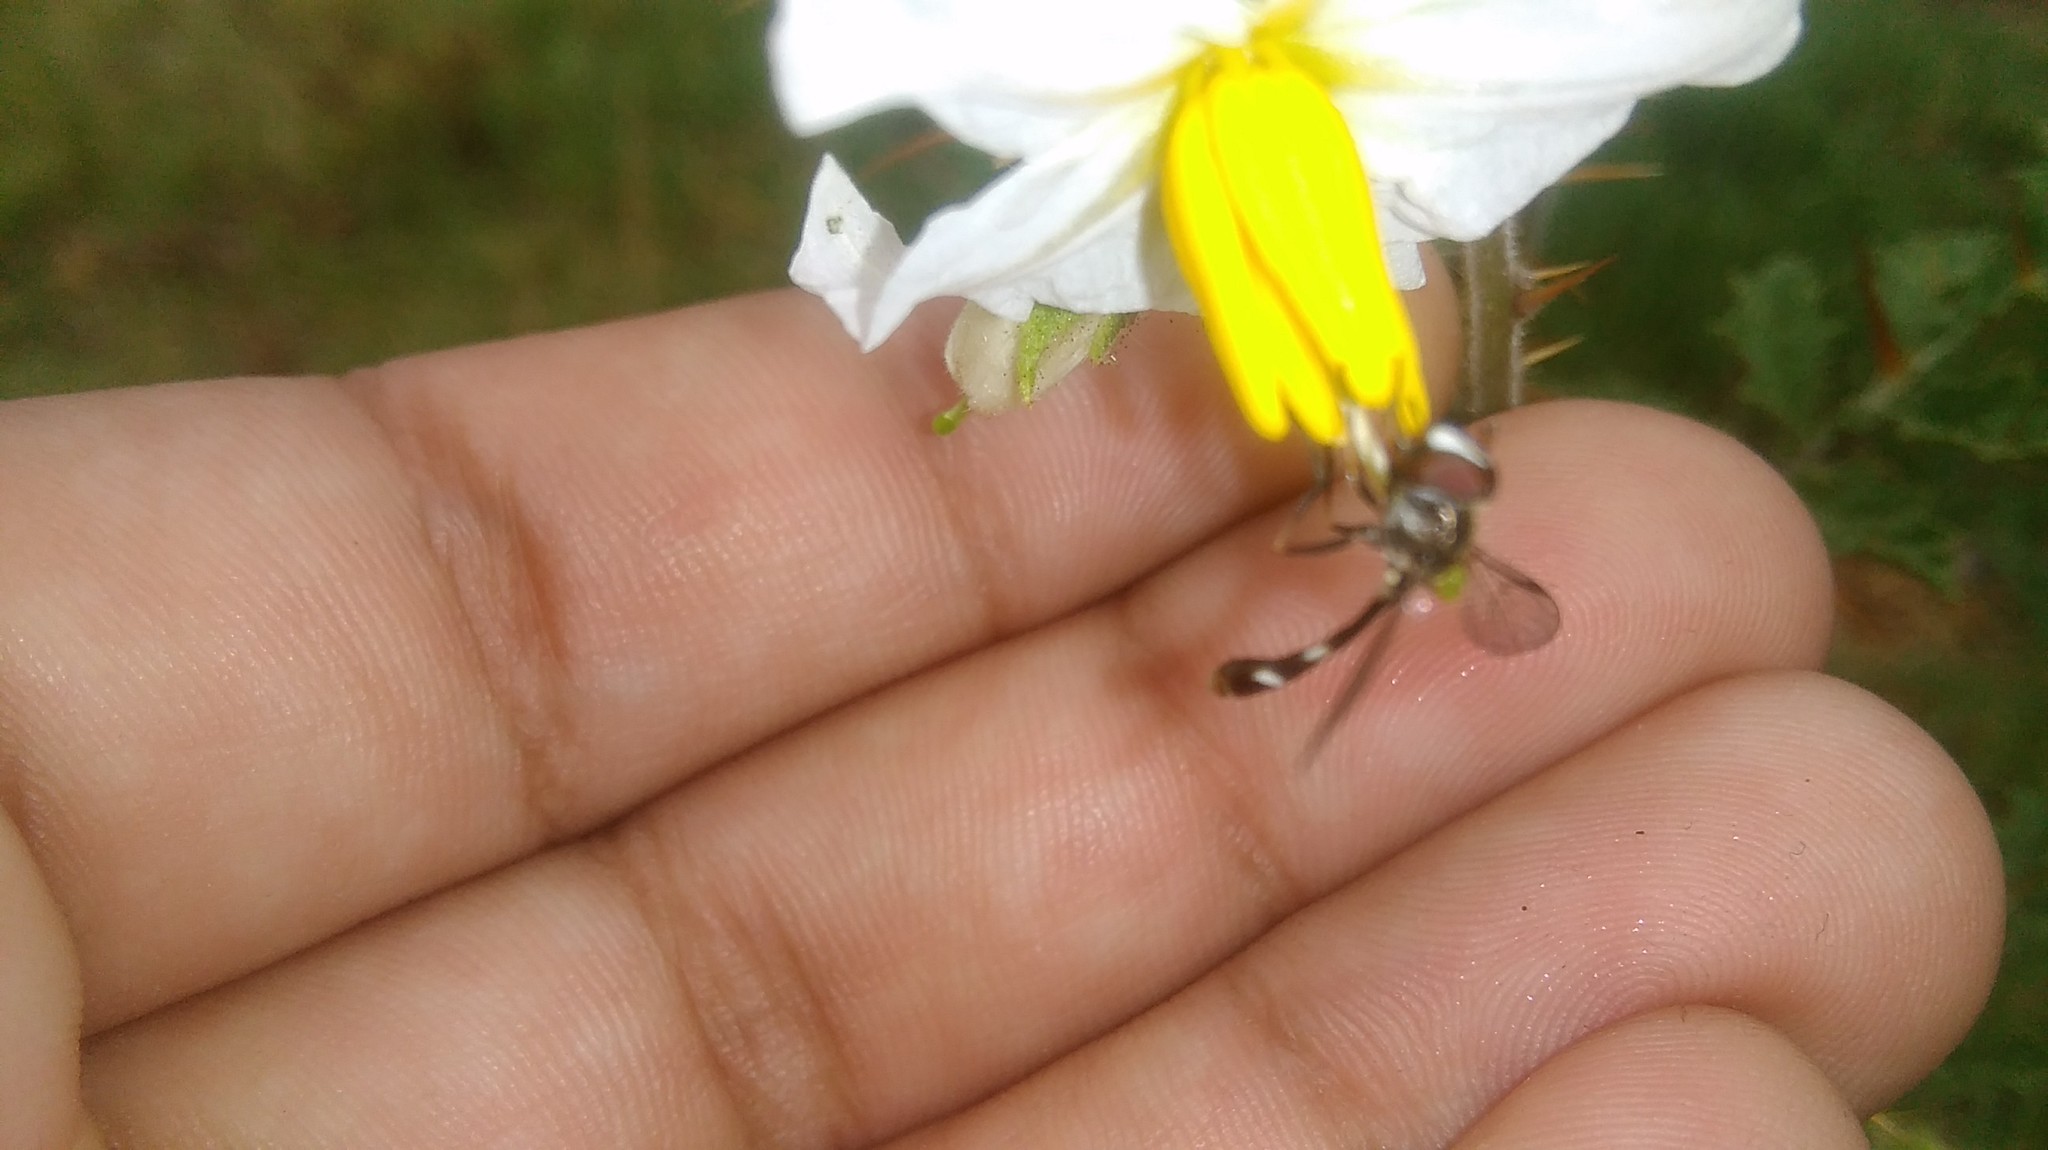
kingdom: Animalia
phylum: Arthropoda
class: Insecta
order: Diptera
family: Syrphidae
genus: Dioprosopa
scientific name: Dioprosopa clavatus
